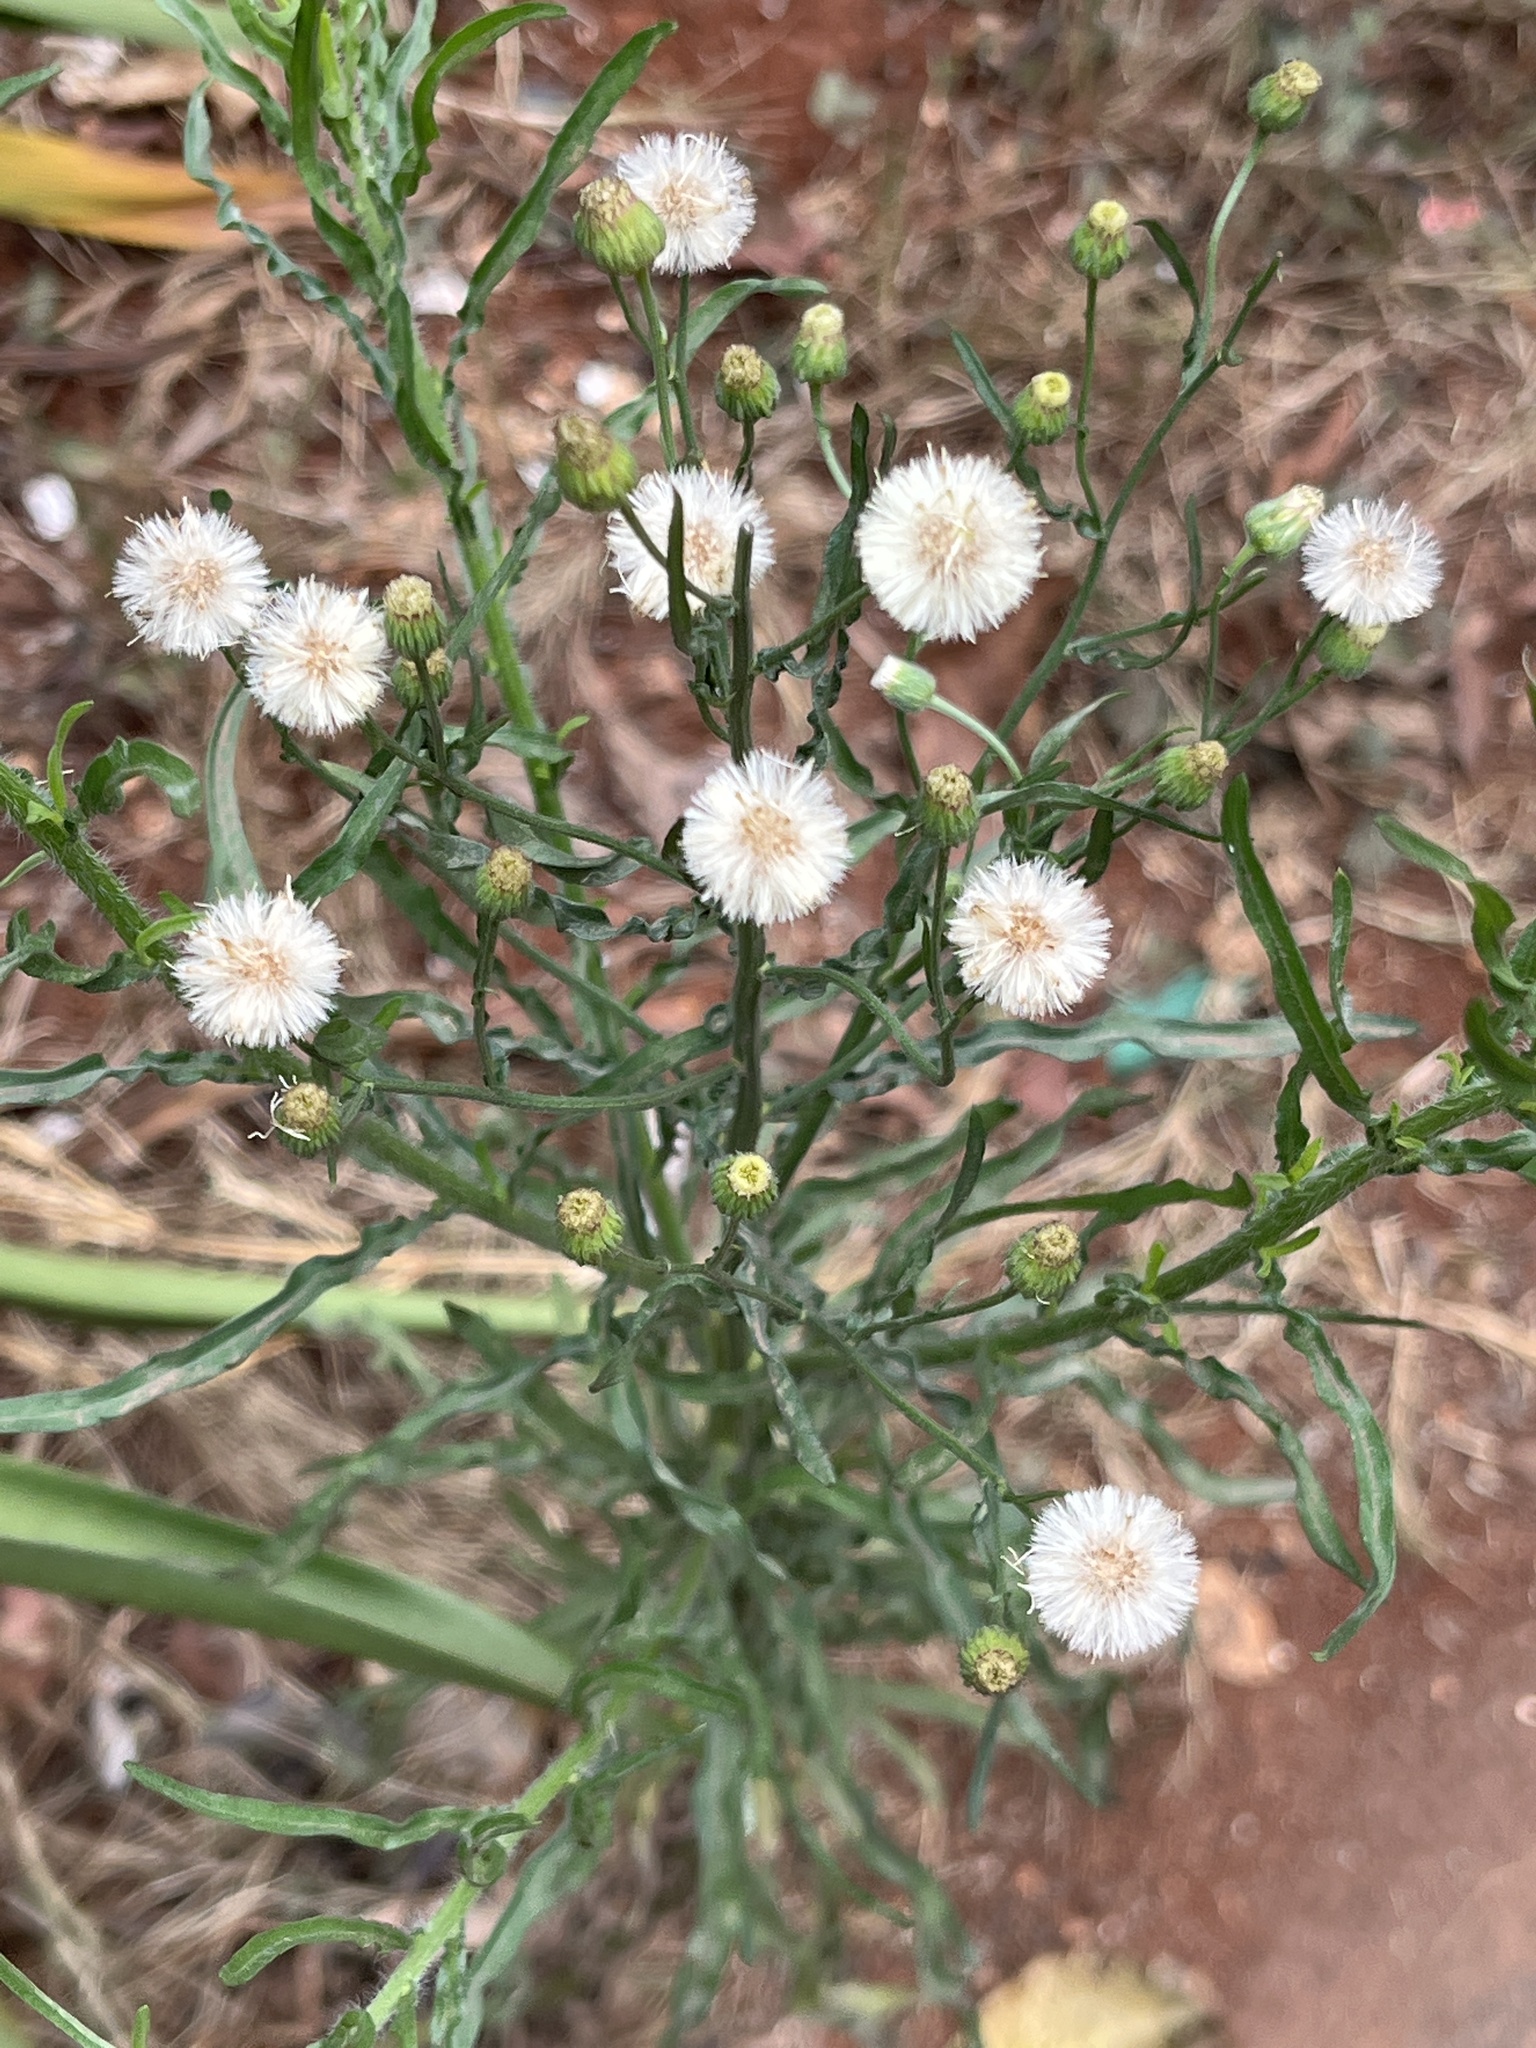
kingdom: Plantae
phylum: Tracheophyta
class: Magnoliopsida
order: Asterales
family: Asteraceae
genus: Erigeron
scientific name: Erigeron bonariensis
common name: Argentine fleabane
